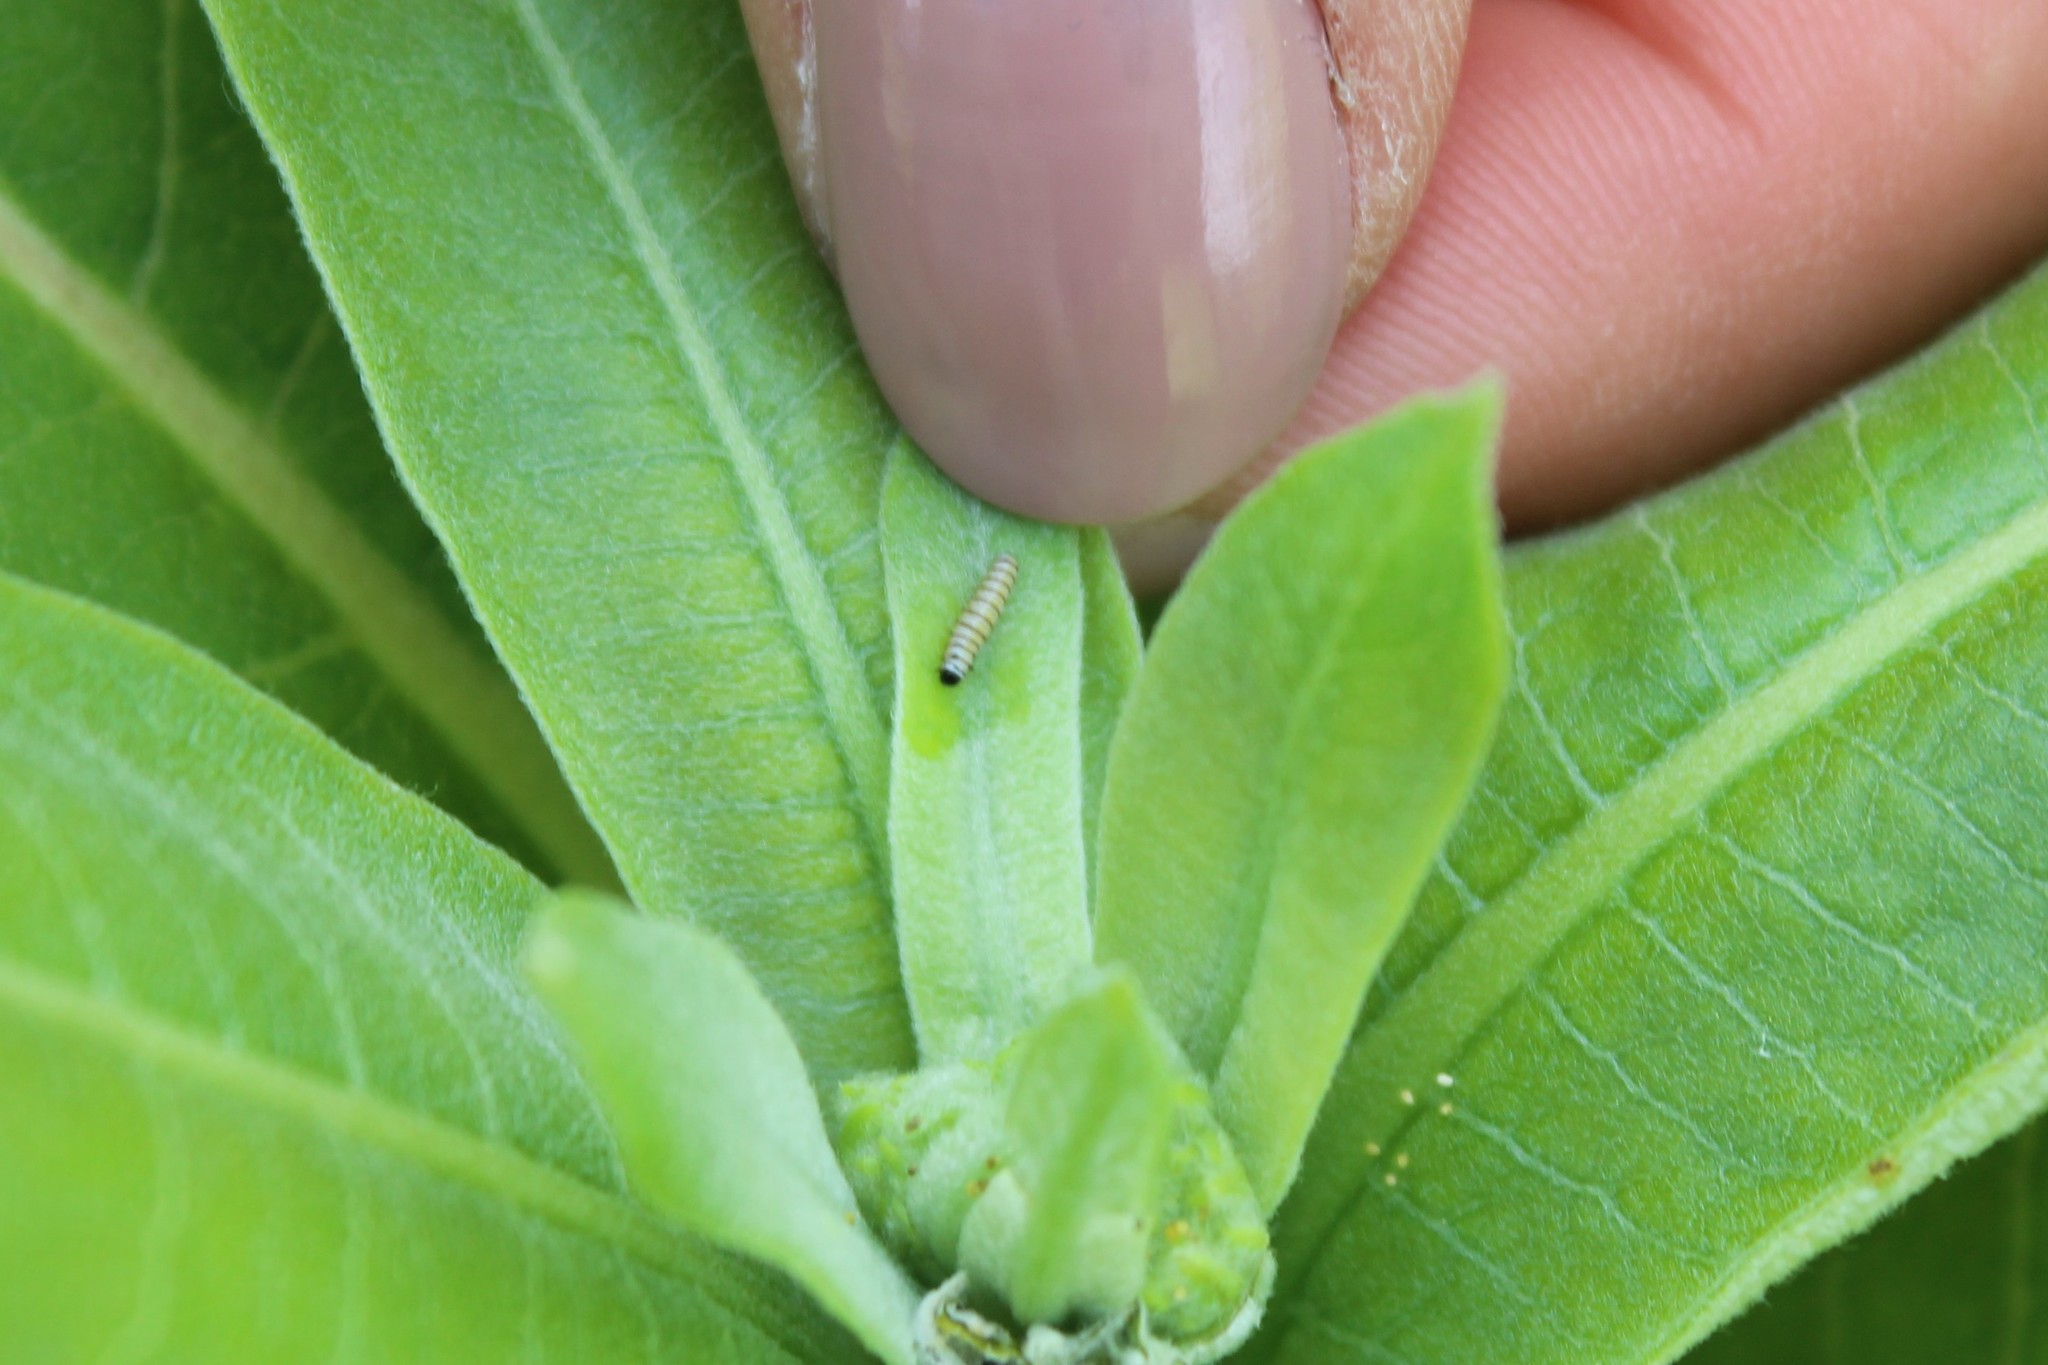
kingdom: Animalia
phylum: Arthropoda
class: Insecta
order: Lepidoptera
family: Nymphalidae
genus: Danaus
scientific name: Danaus plexippus
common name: Monarch
